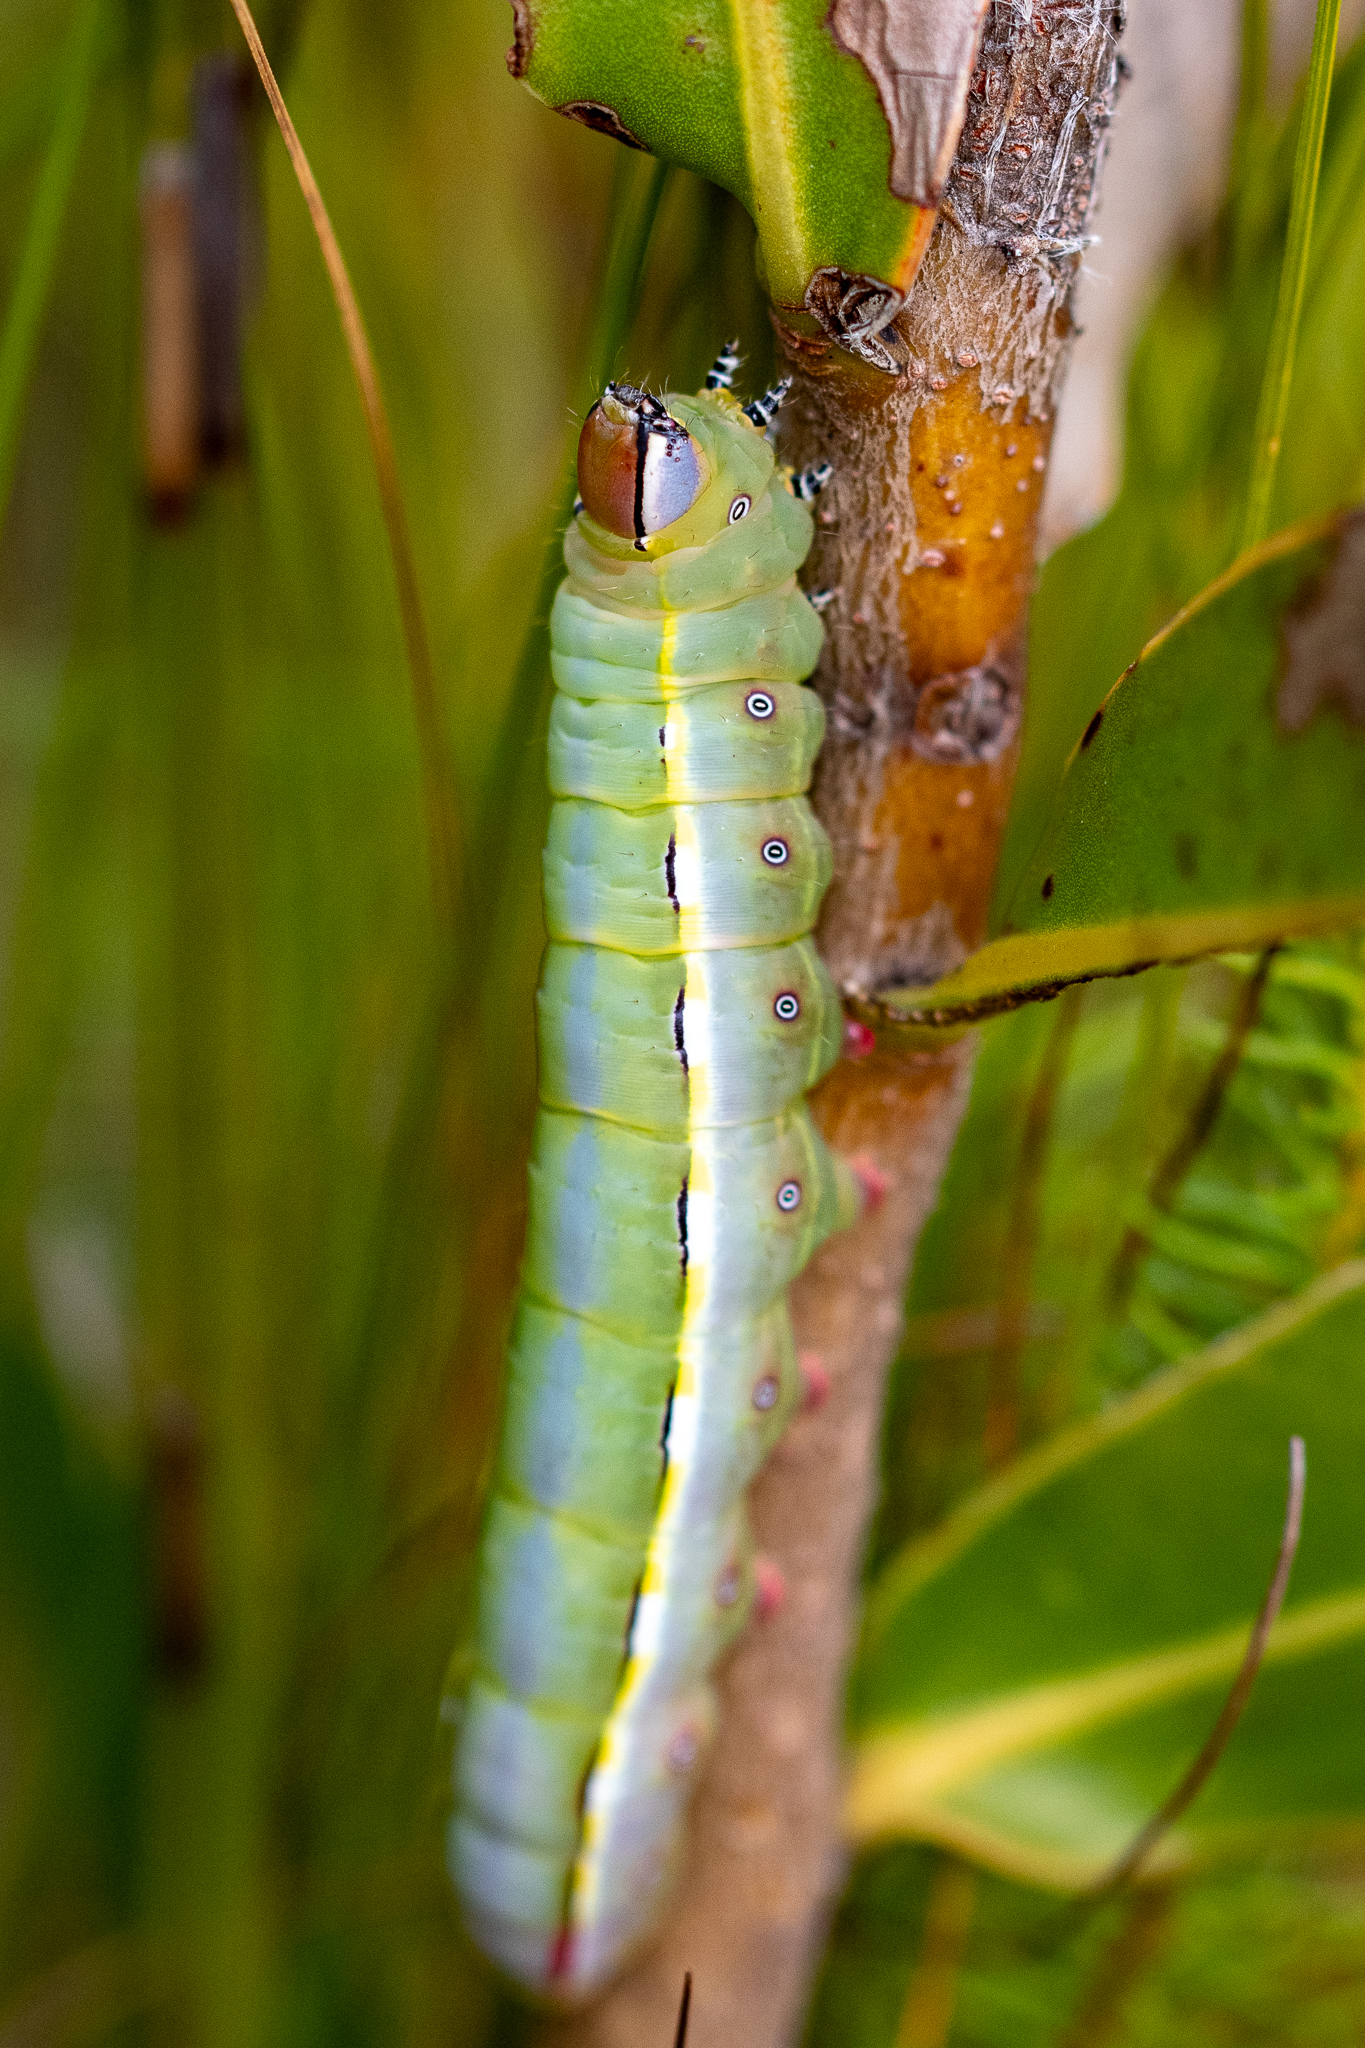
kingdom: Animalia
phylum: Arthropoda
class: Insecta
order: Lepidoptera
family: Notodontidae
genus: Catochria
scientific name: Catochria catocaloides
